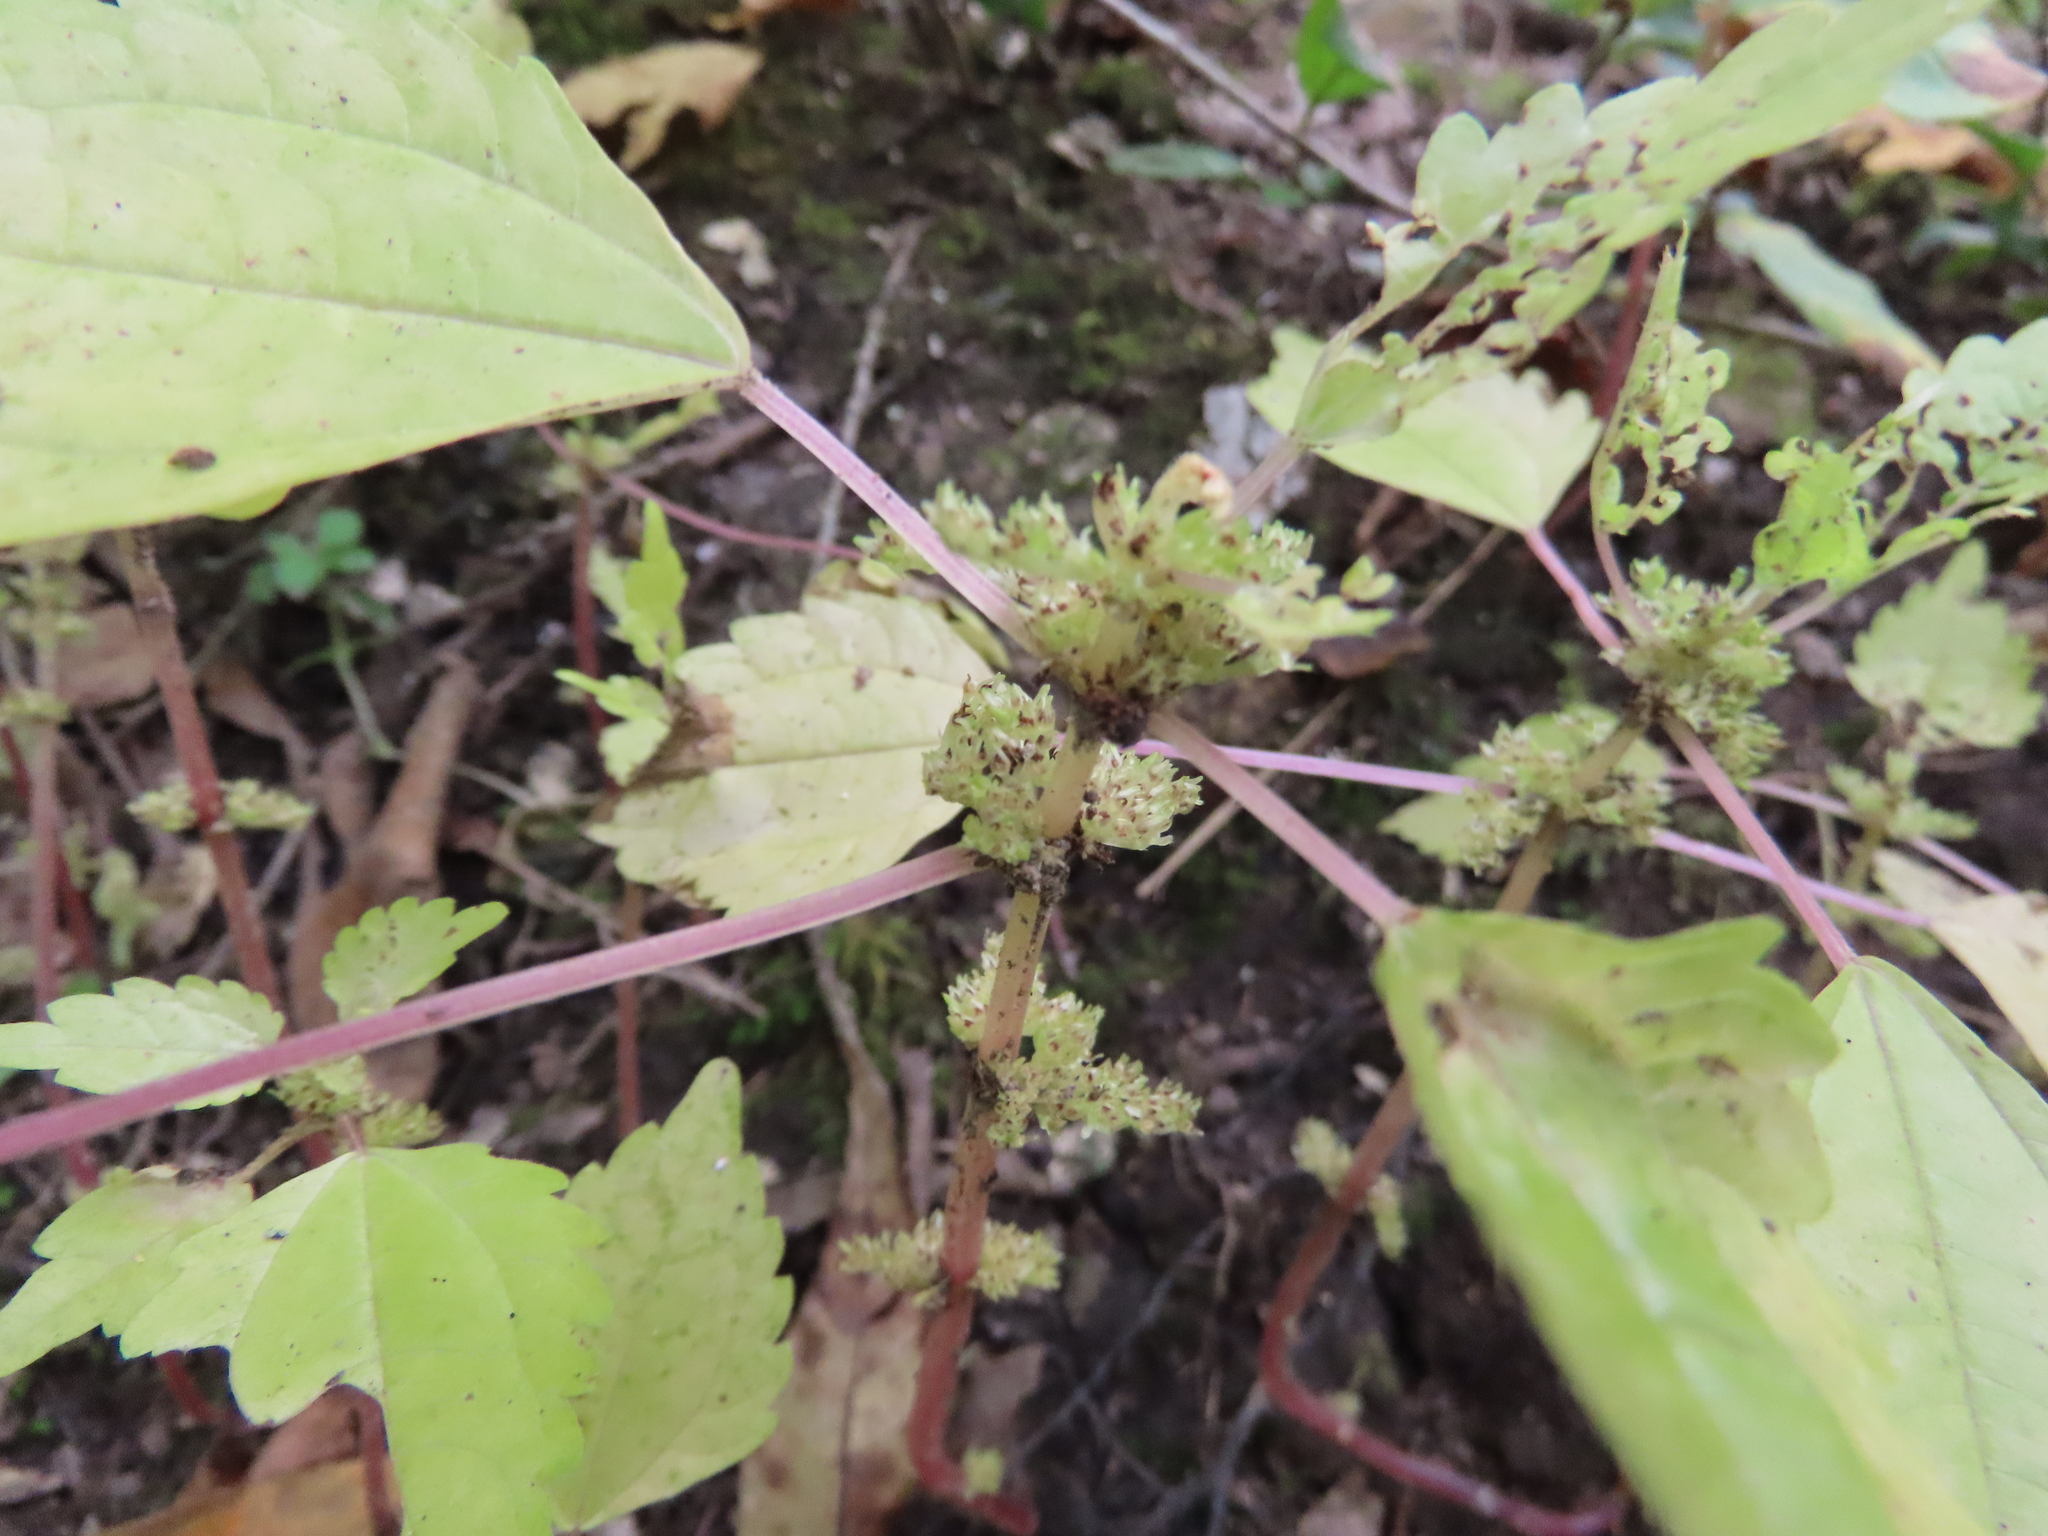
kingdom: Plantae
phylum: Tracheophyta
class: Magnoliopsida
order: Rosales
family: Urticaceae
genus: Pilea
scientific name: Pilea pumila
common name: Clearweed
